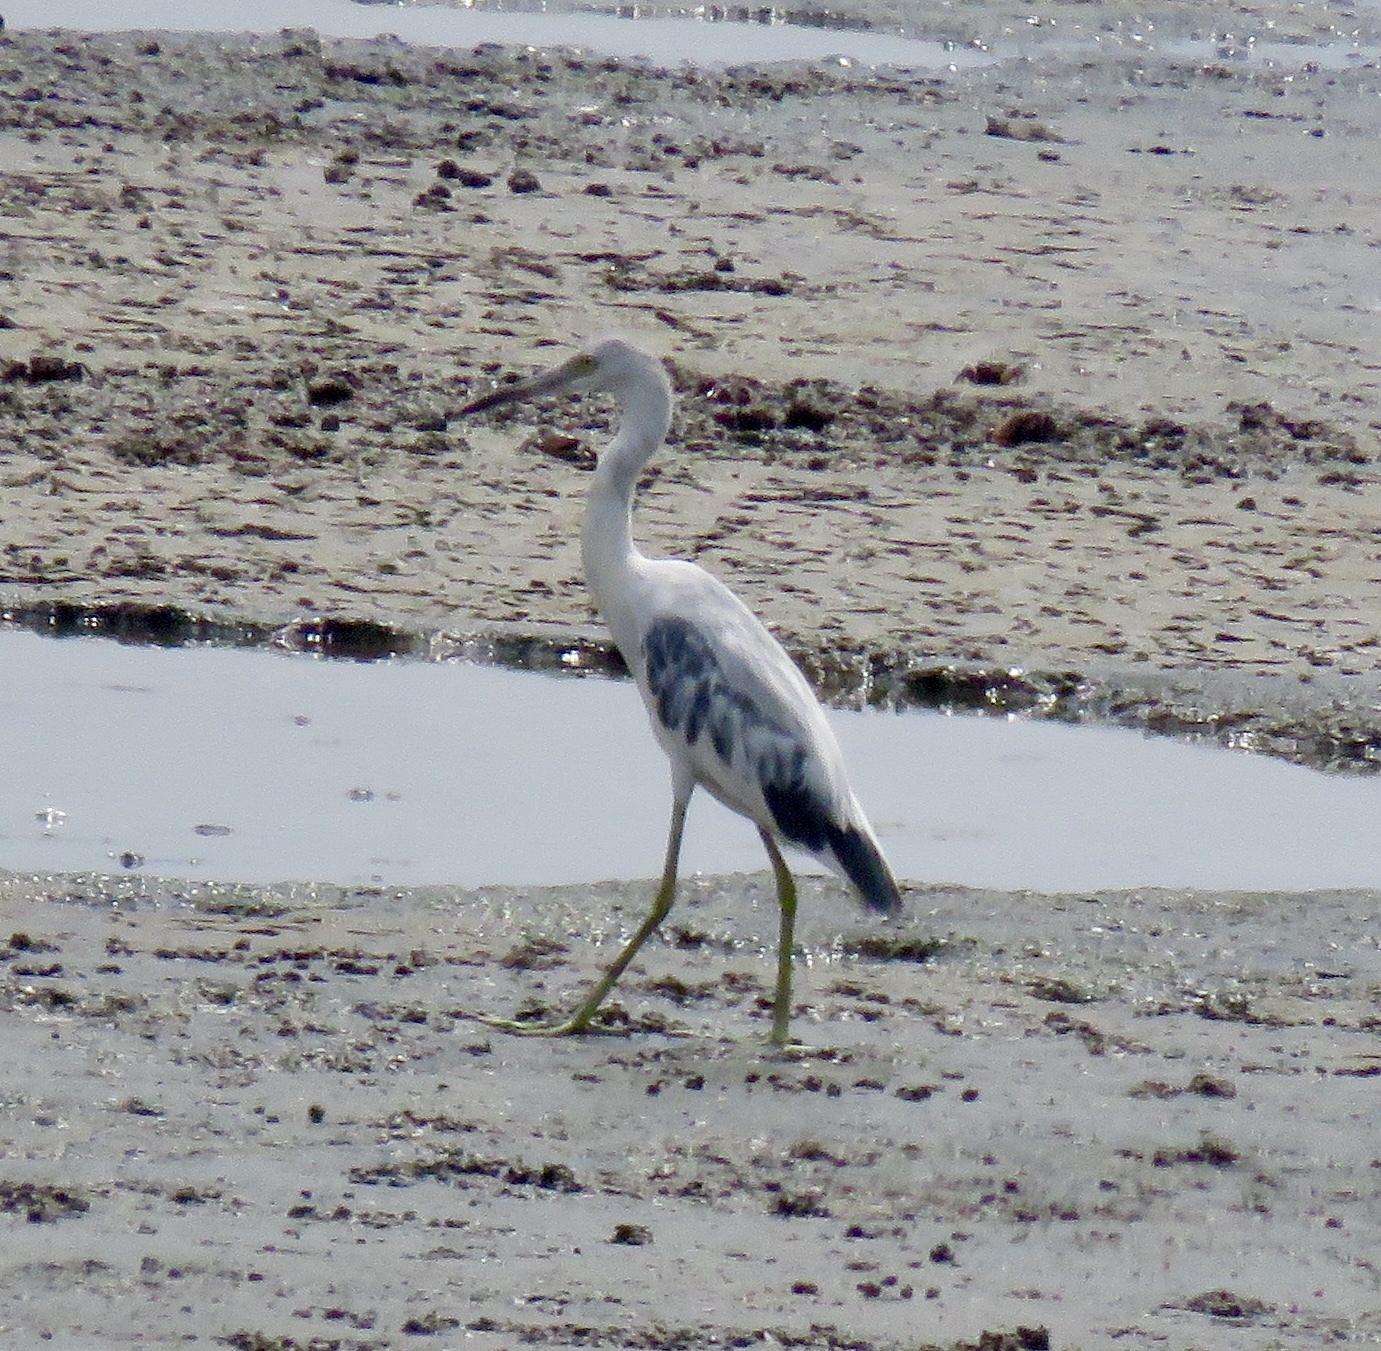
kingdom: Animalia
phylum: Chordata
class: Aves
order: Pelecaniformes
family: Ardeidae
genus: Egretta
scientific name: Egretta caerulea
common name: Little blue heron
